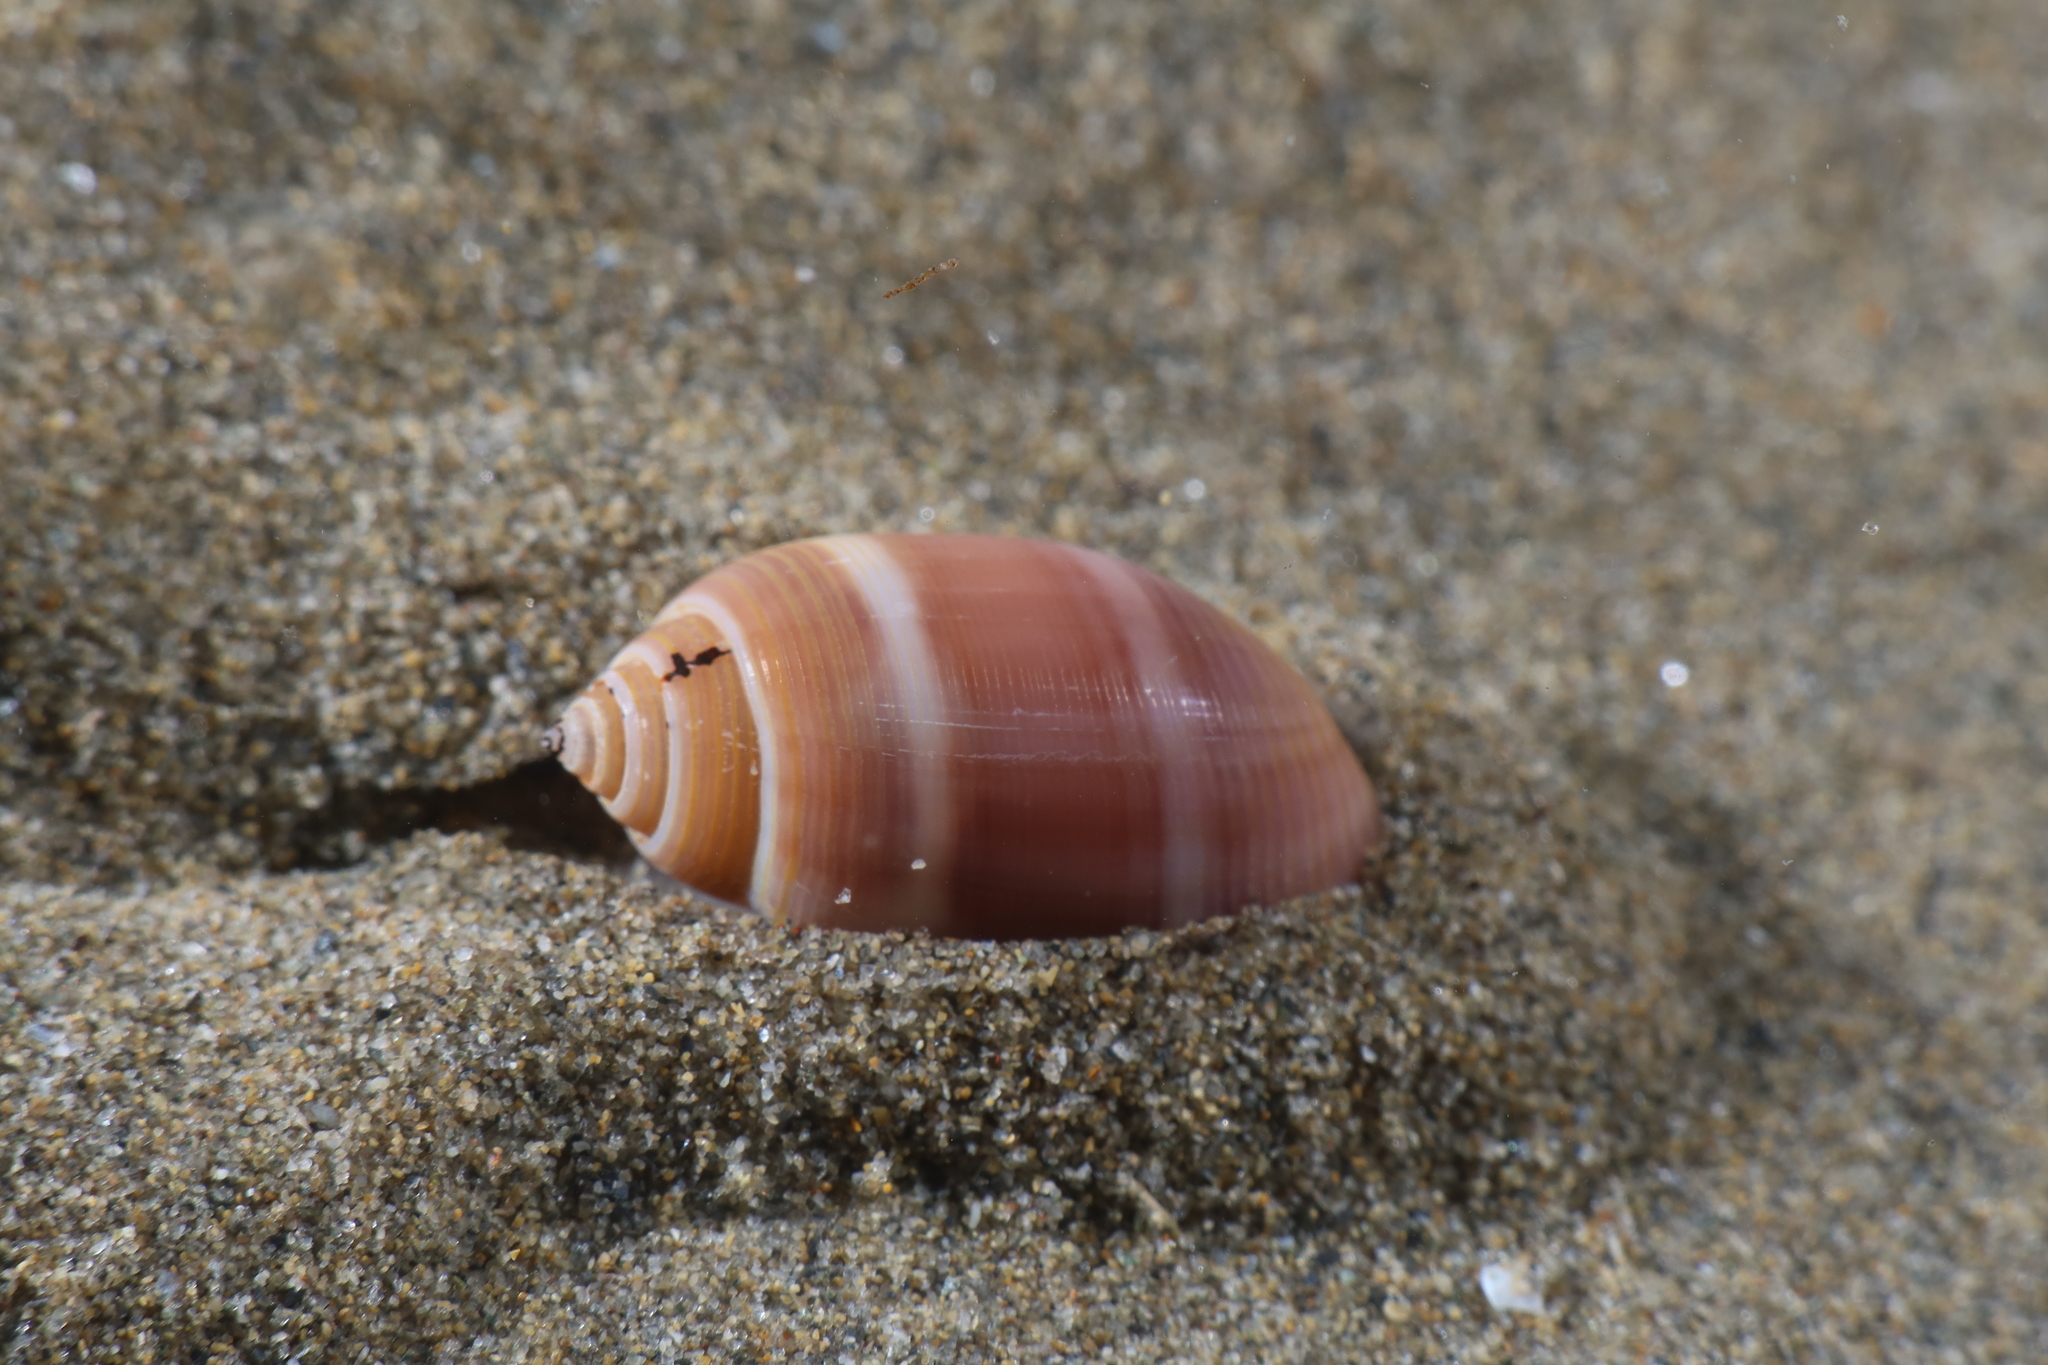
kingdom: Animalia
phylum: Mollusca
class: Gastropoda
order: Cephalaspidea
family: Acteonidae
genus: Acteon
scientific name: Acteon tornatilis
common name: European acteon
